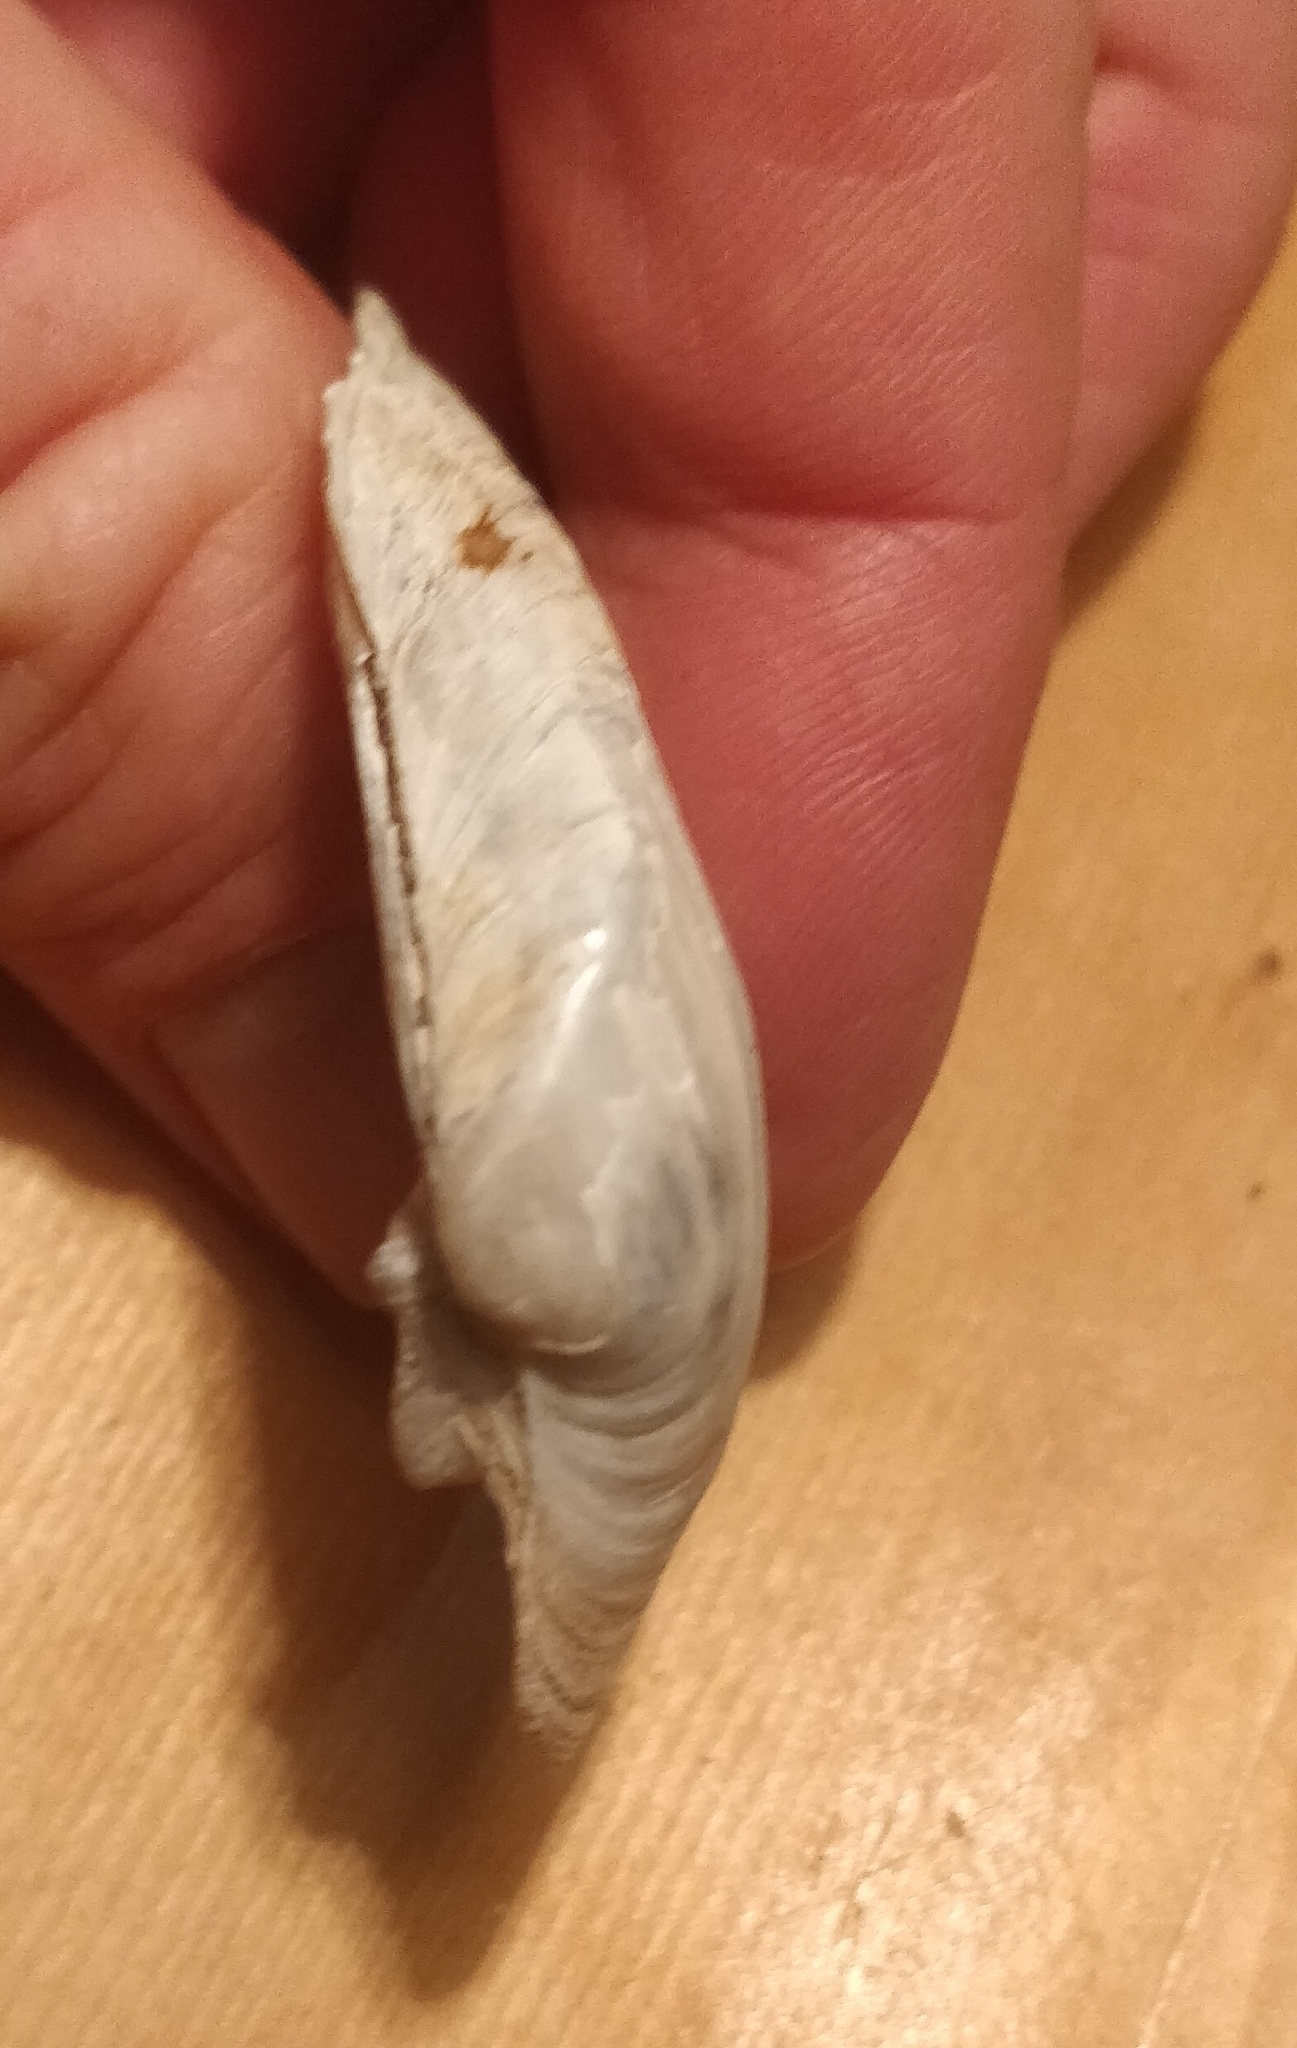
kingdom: Animalia
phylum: Mollusca
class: Bivalvia
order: Unionida
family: Unionidae
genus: Truncilla
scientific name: Truncilla truncata
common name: Deertoe
